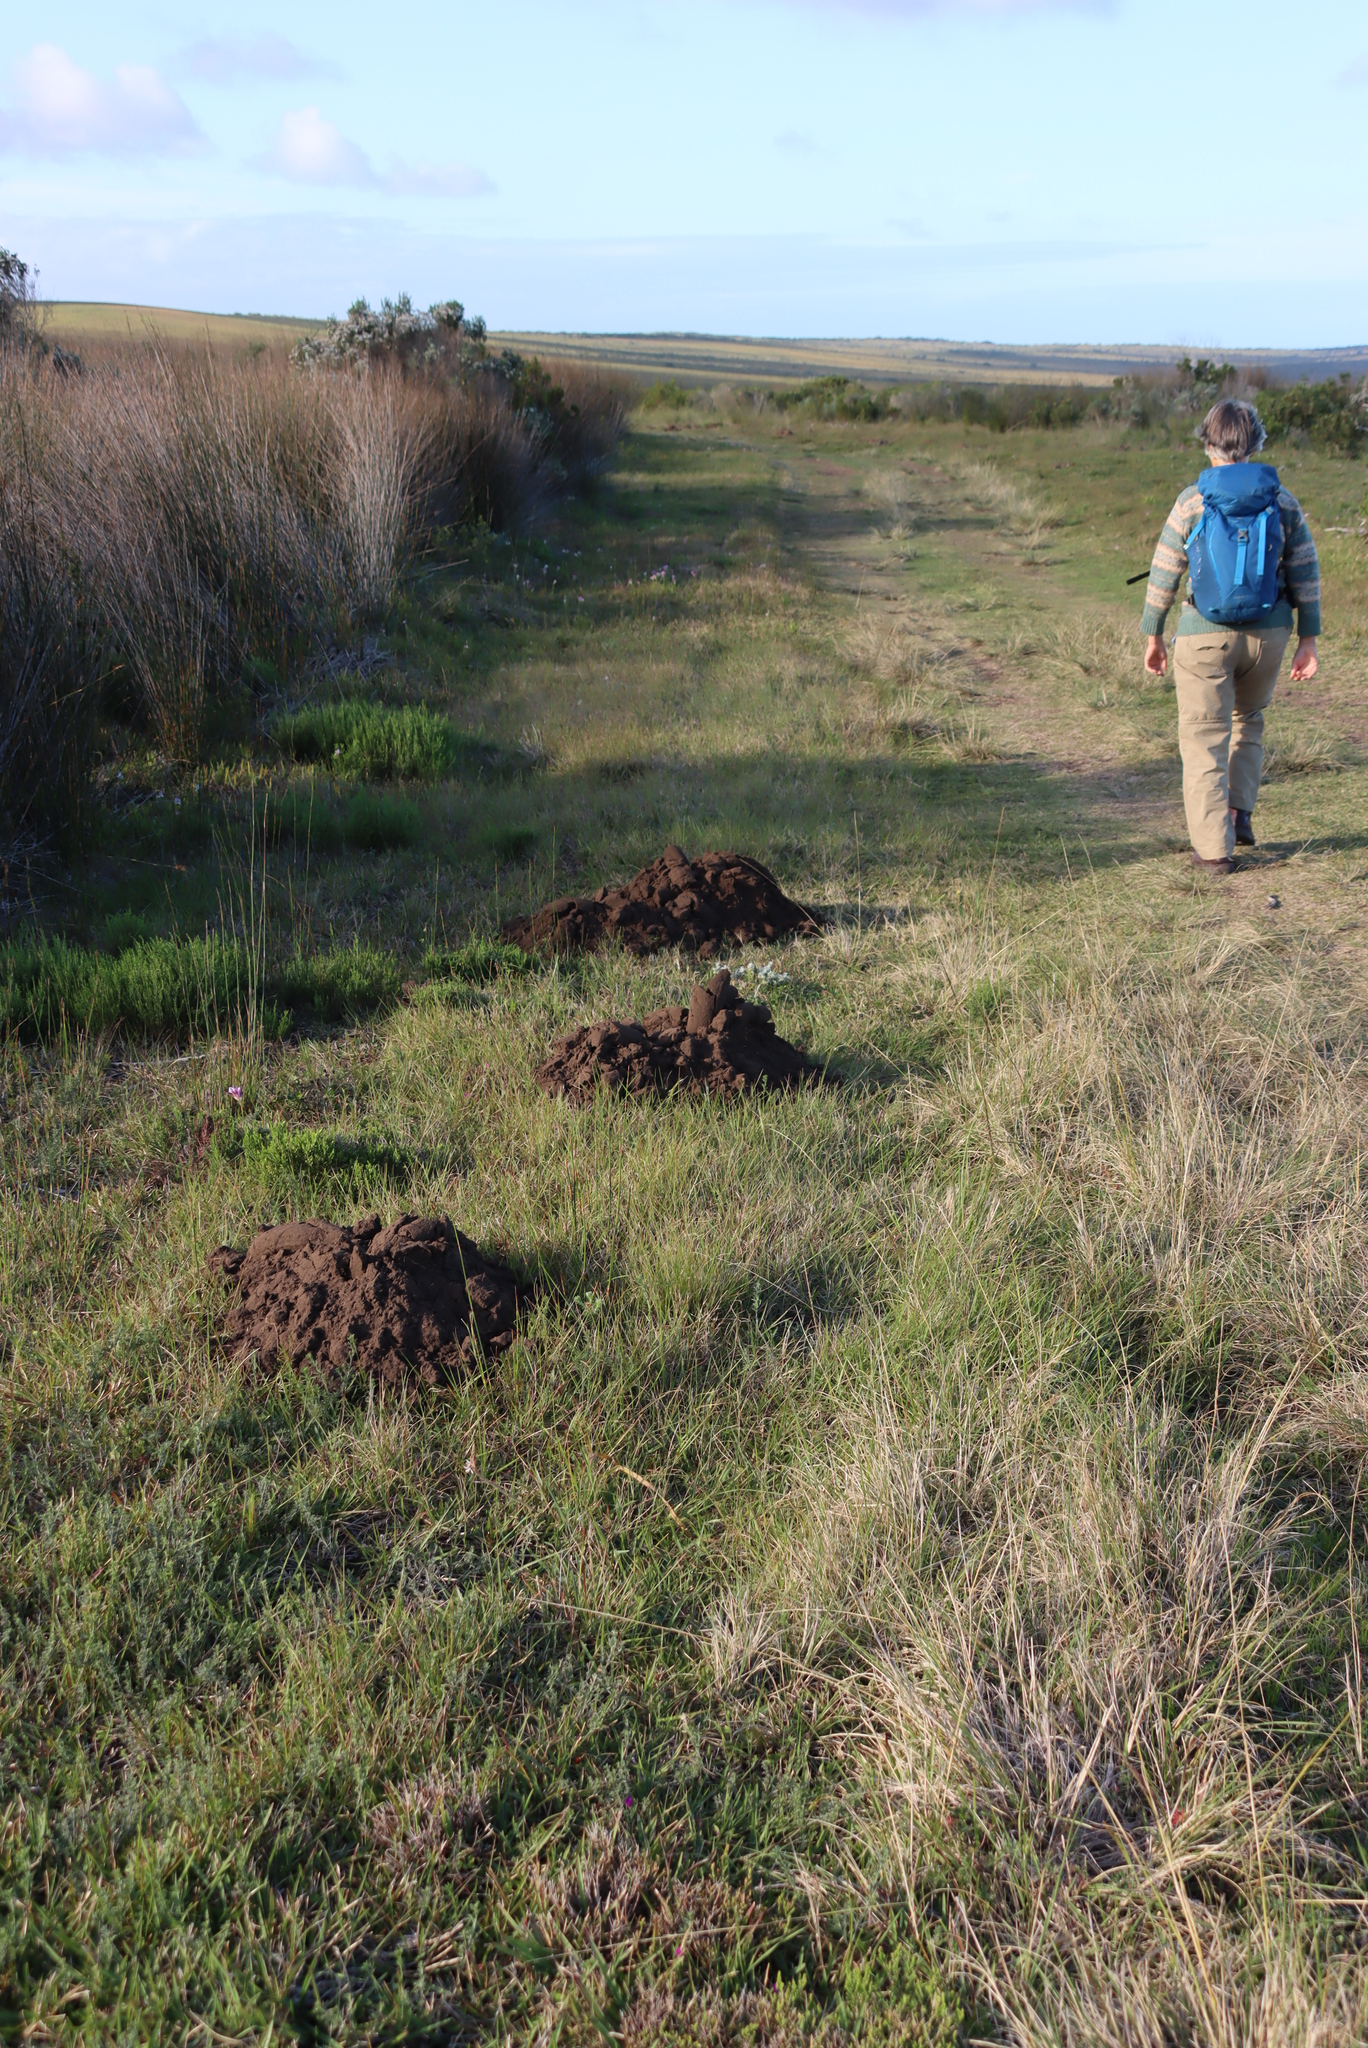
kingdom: Animalia
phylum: Chordata
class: Mammalia
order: Rodentia
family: Bathyergidae
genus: Bathyergus
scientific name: Bathyergus suillus
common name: Cape dune mole rat
